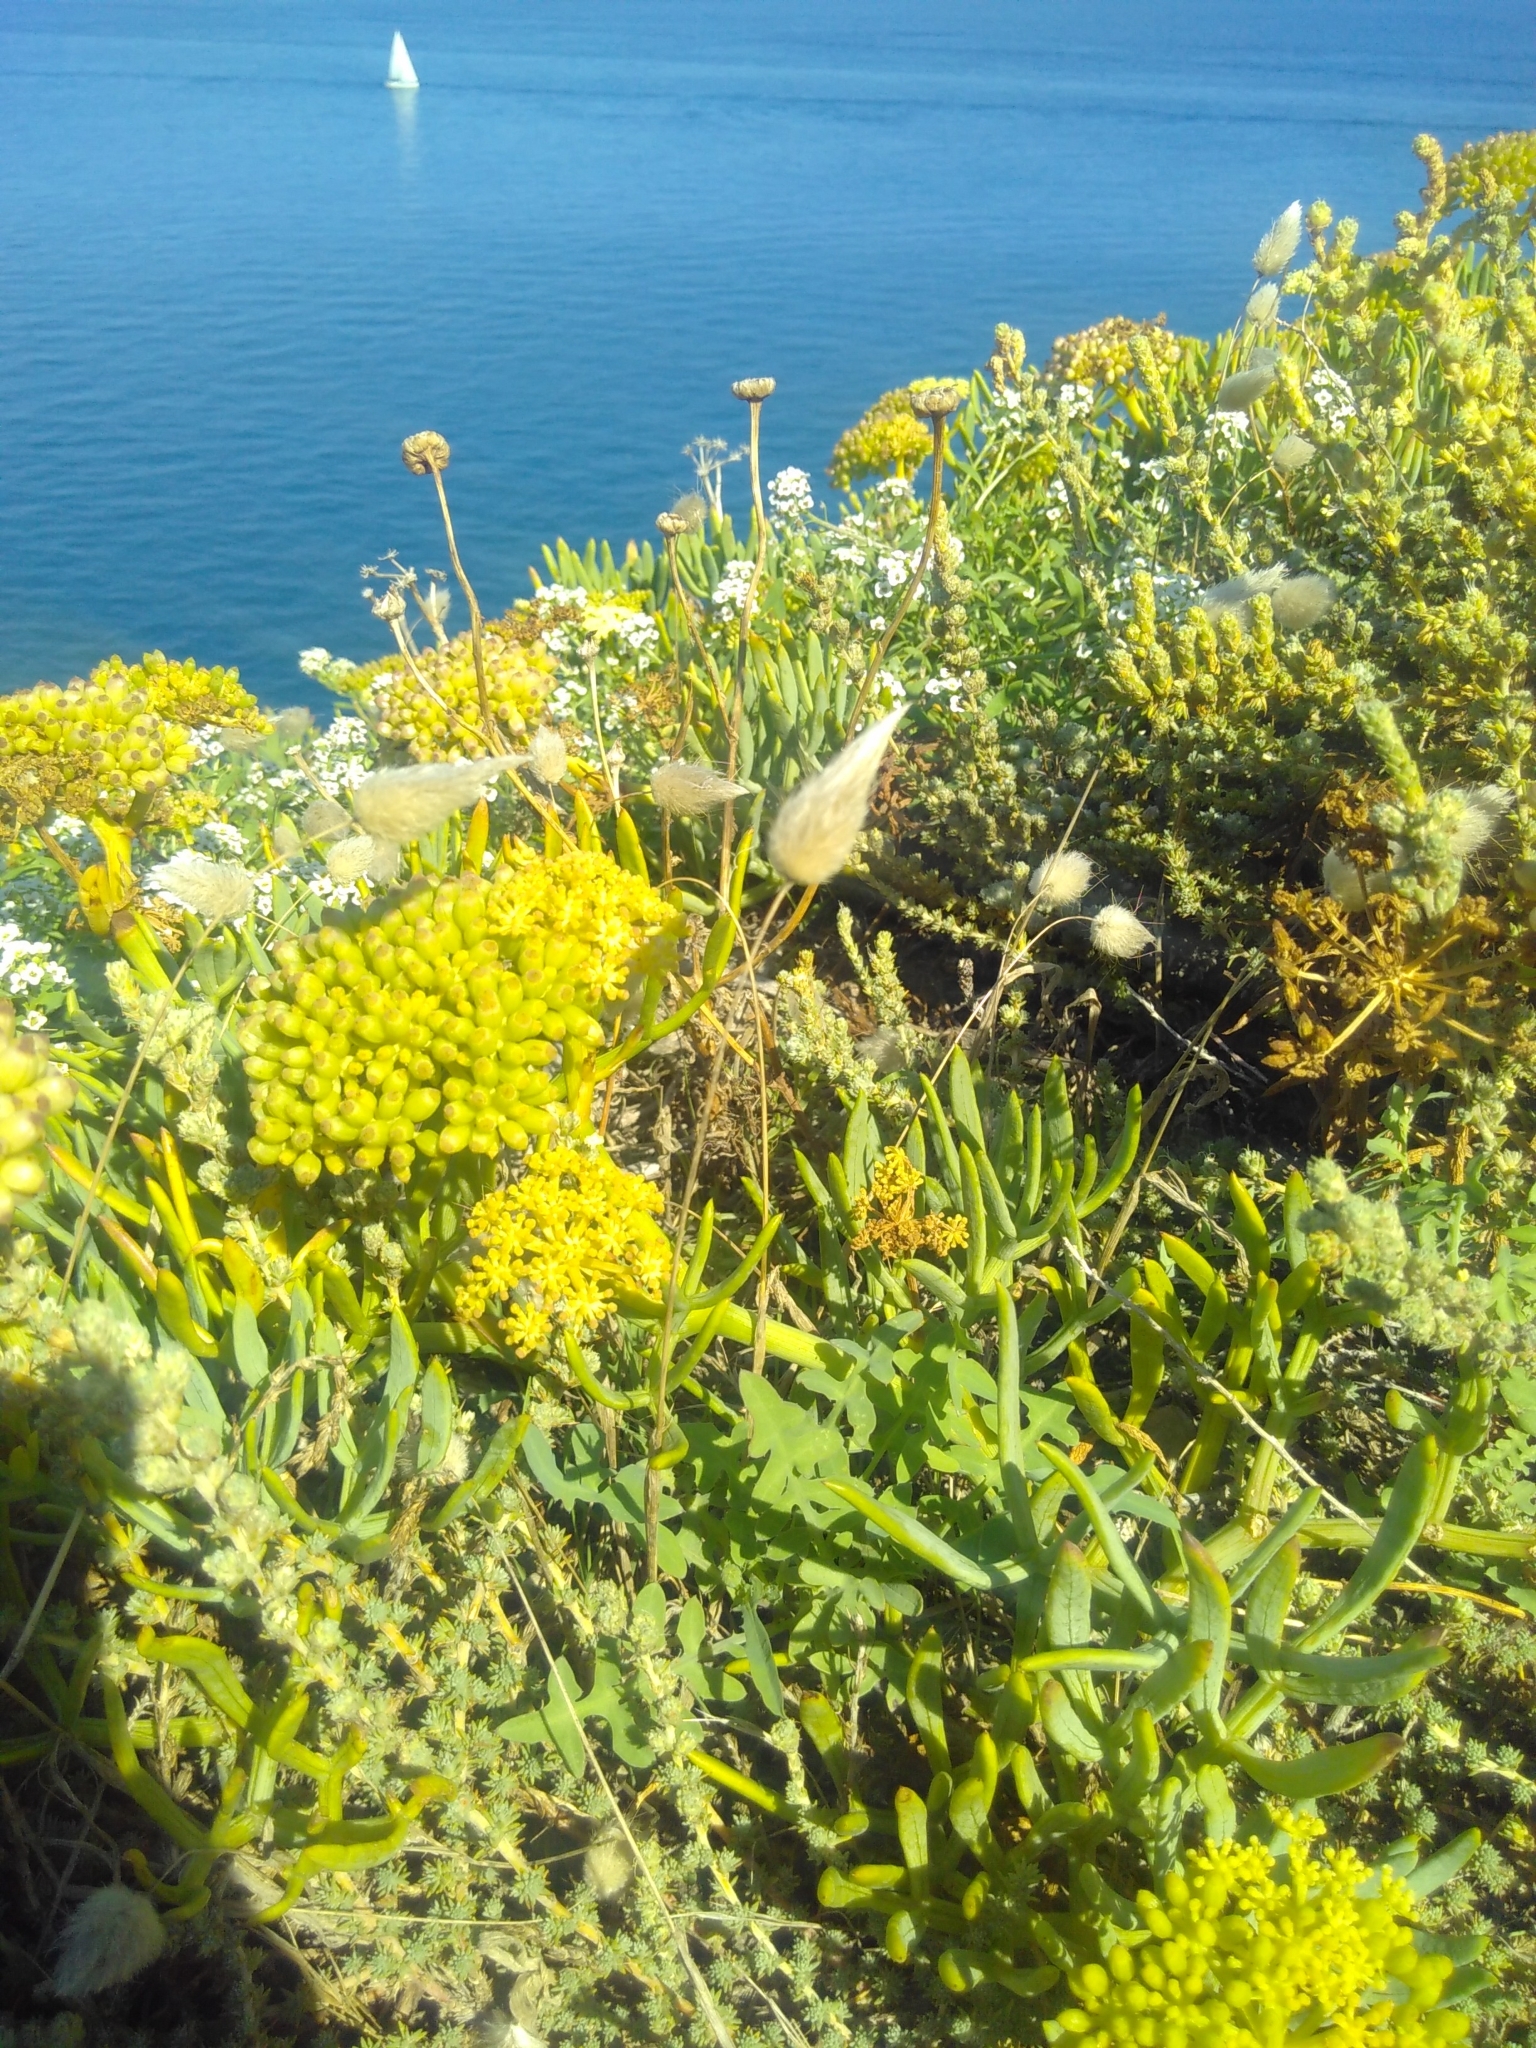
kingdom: Plantae
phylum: Tracheophyta
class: Liliopsida
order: Poales
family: Poaceae
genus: Lagurus
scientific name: Lagurus ovatus
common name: Hare's-tail
